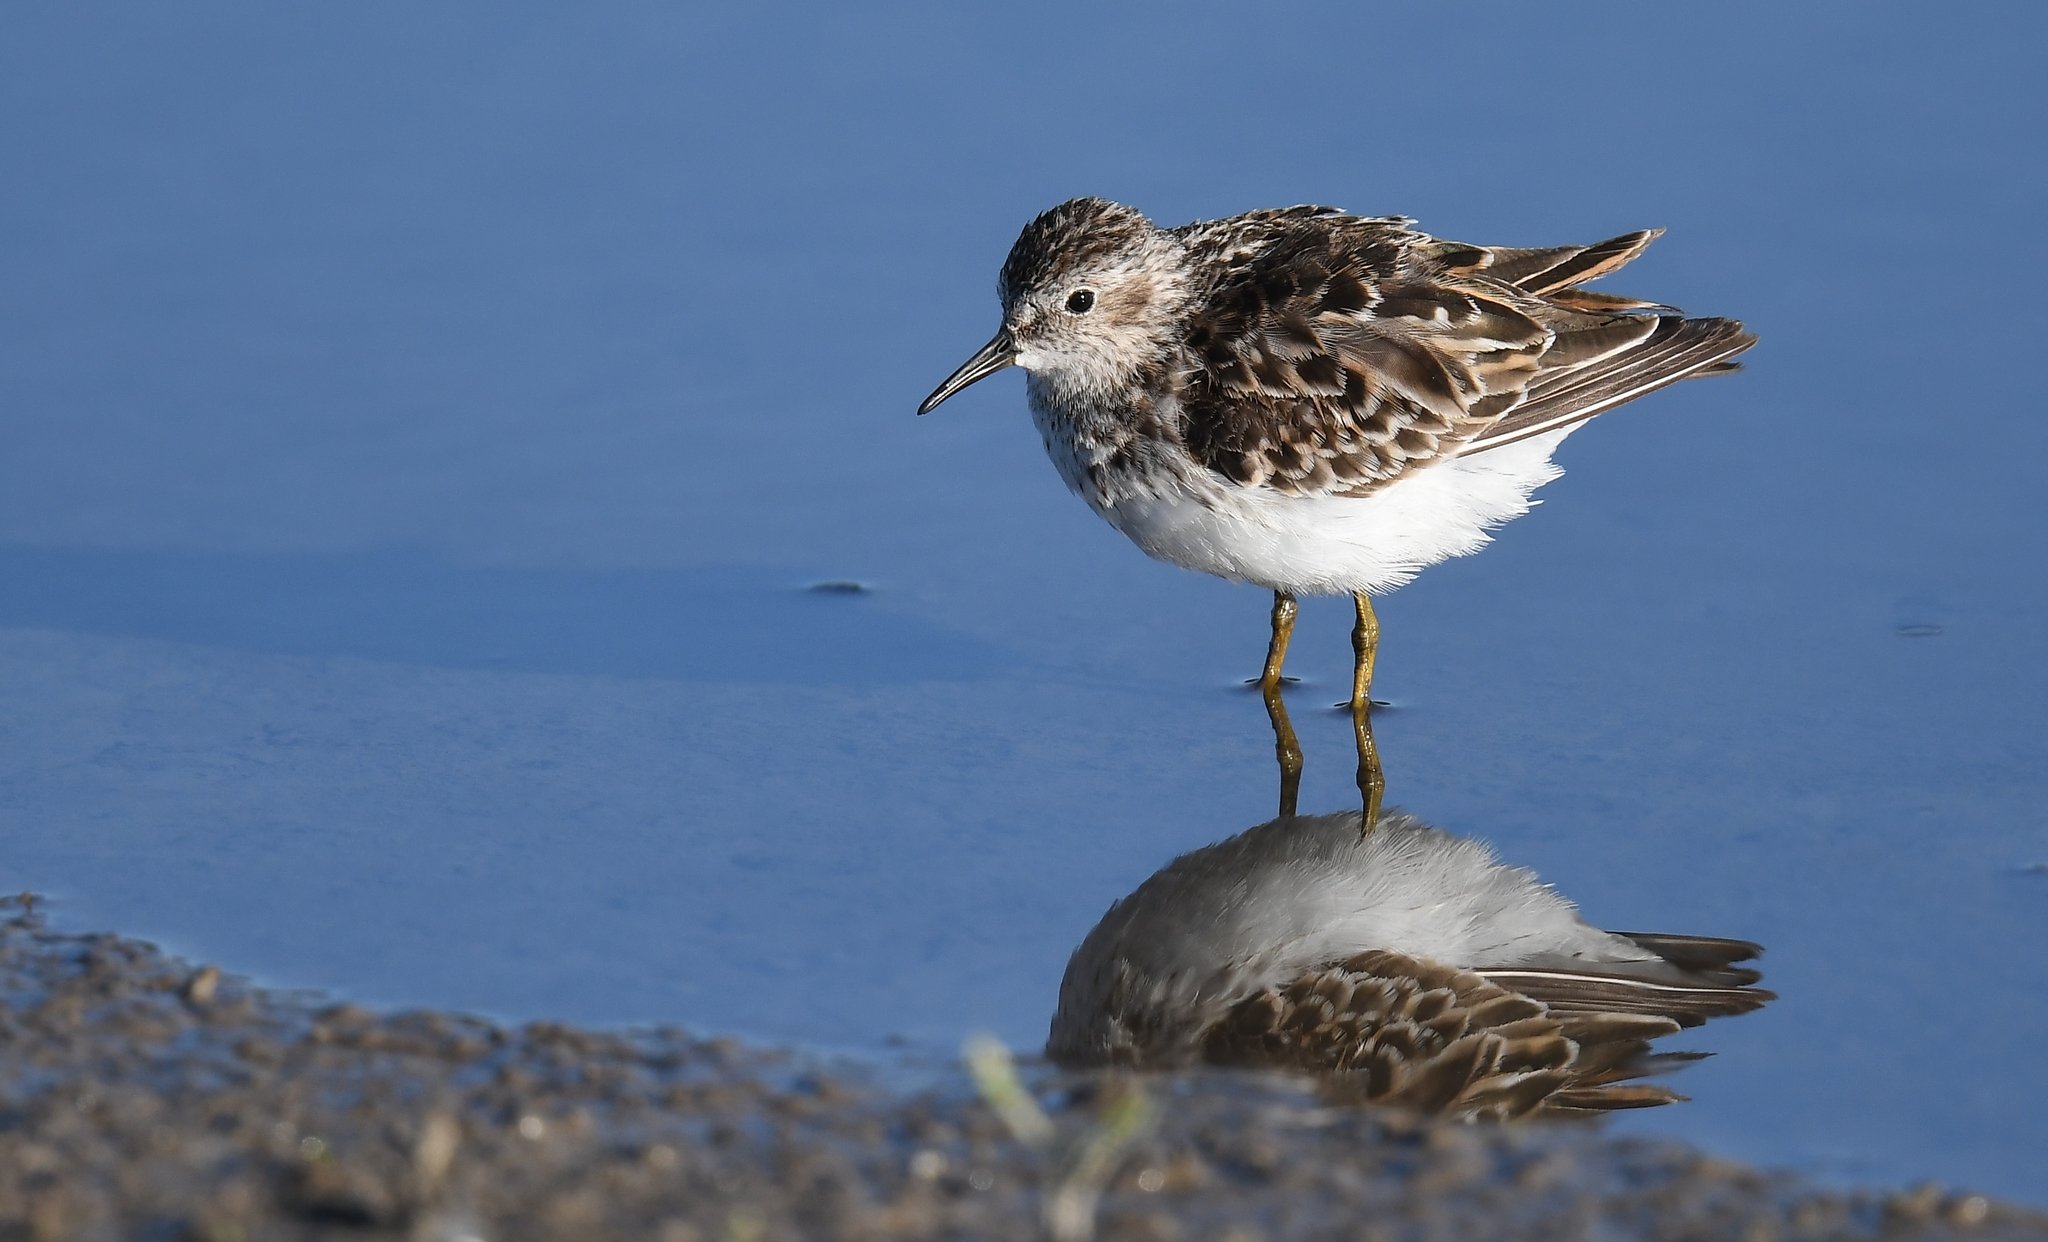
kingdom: Animalia
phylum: Chordata
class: Aves
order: Charadriiformes
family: Scolopacidae
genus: Calidris
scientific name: Calidris minutilla
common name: Least sandpiper
